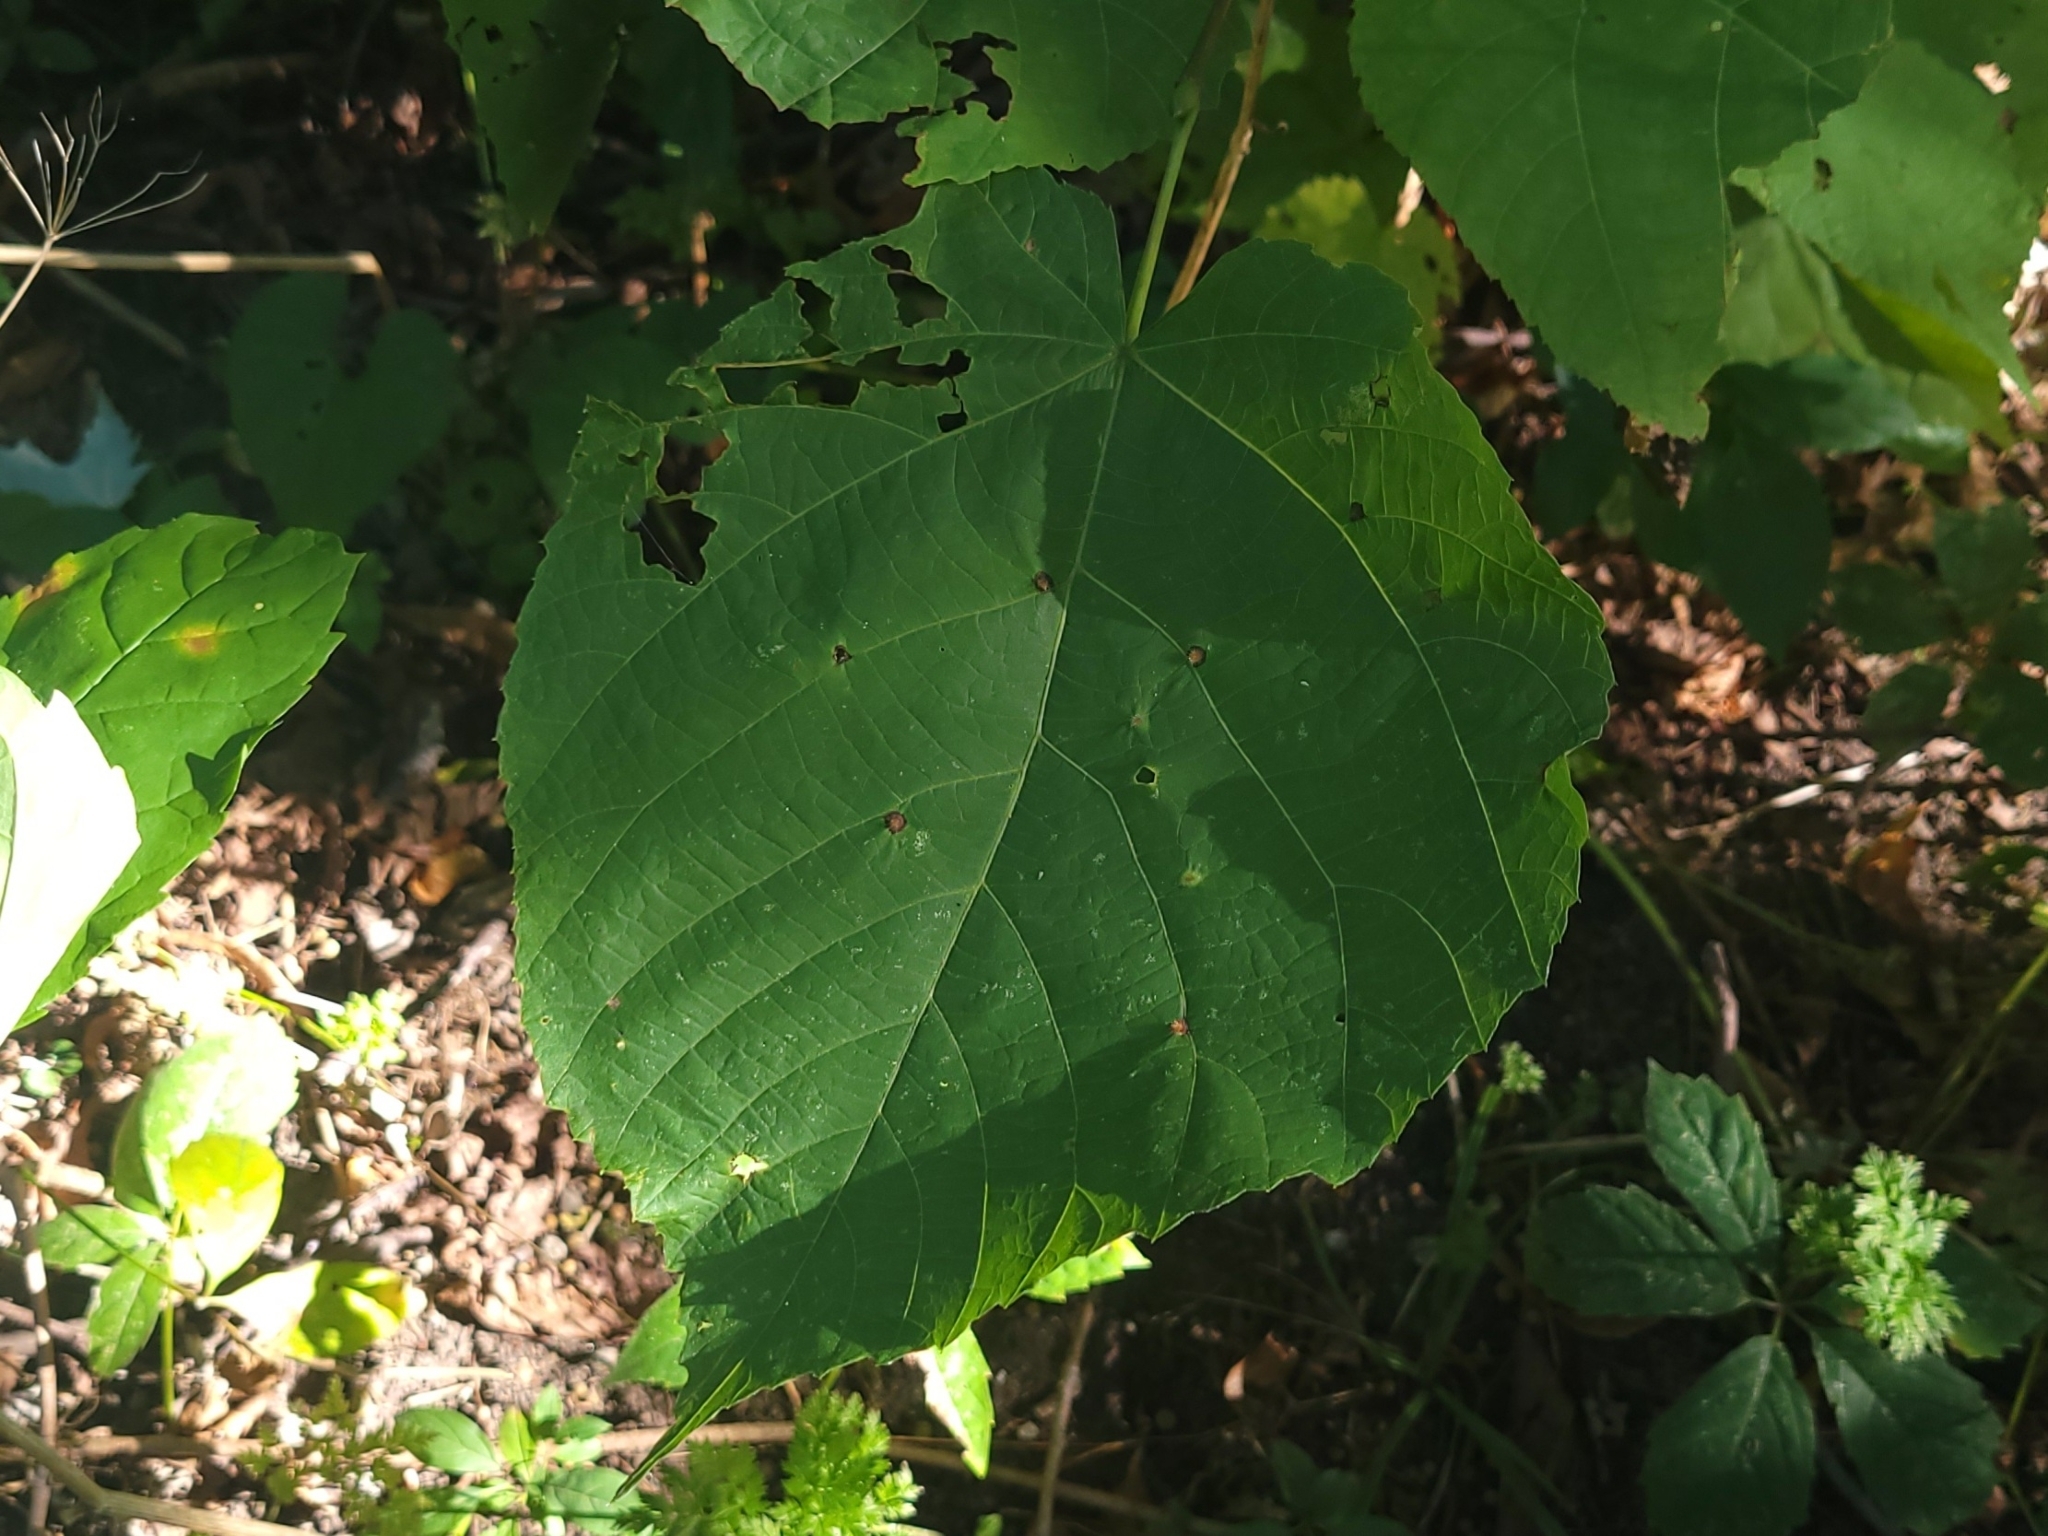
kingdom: Plantae
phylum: Tracheophyta
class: Magnoliopsida
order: Malvales
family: Malvaceae
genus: Tilia
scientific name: Tilia americana
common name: Basswood
